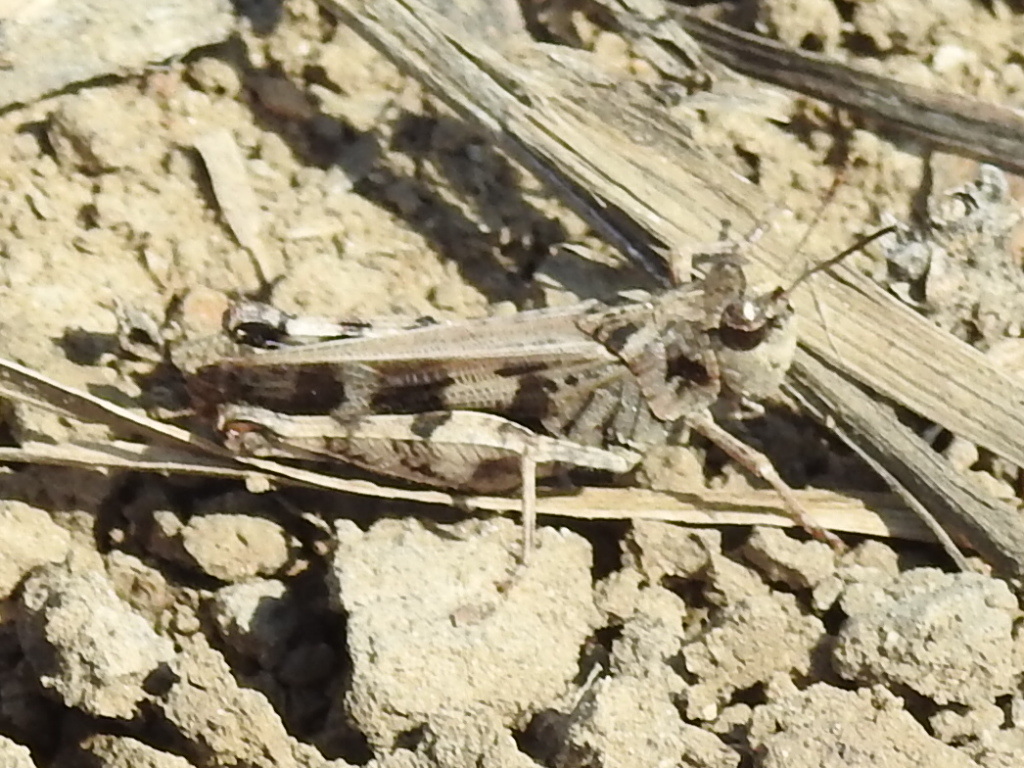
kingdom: Animalia
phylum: Arthropoda
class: Insecta
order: Orthoptera
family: Acrididae
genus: Encoptolophus
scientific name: Encoptolophus costalis
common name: Dusky grasshopper
